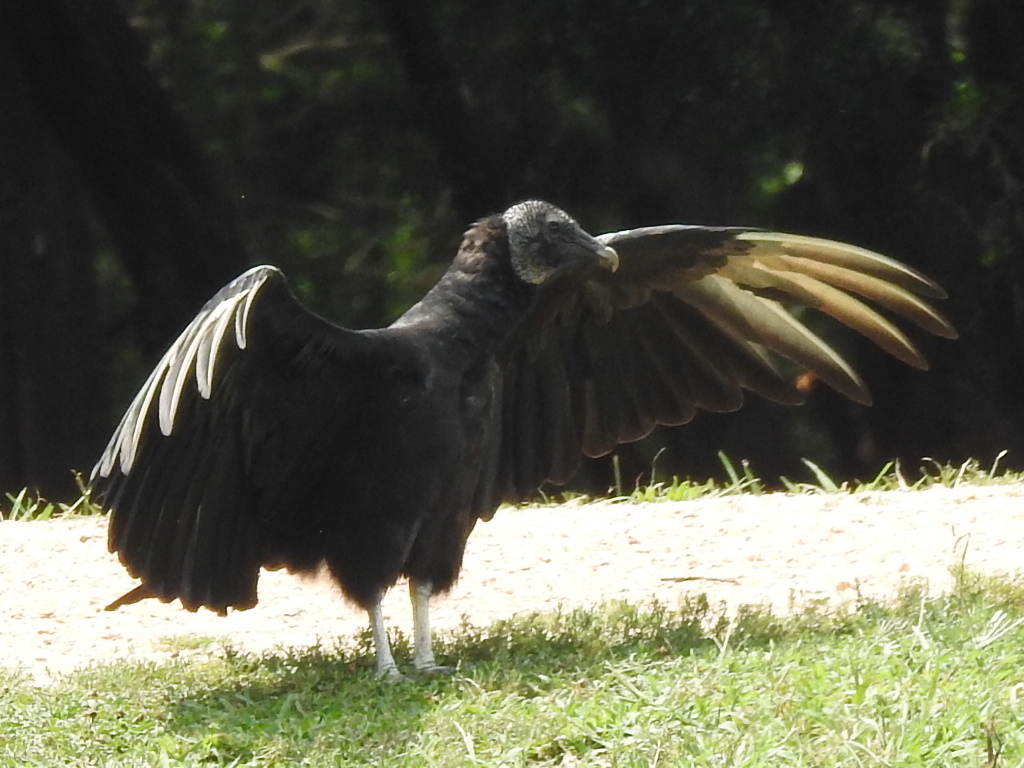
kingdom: Animalia
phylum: Chordata
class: Aves
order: Accipitriformes
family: Cathartidae
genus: Coragyps
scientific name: Coragyps atratus
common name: Black vulture
